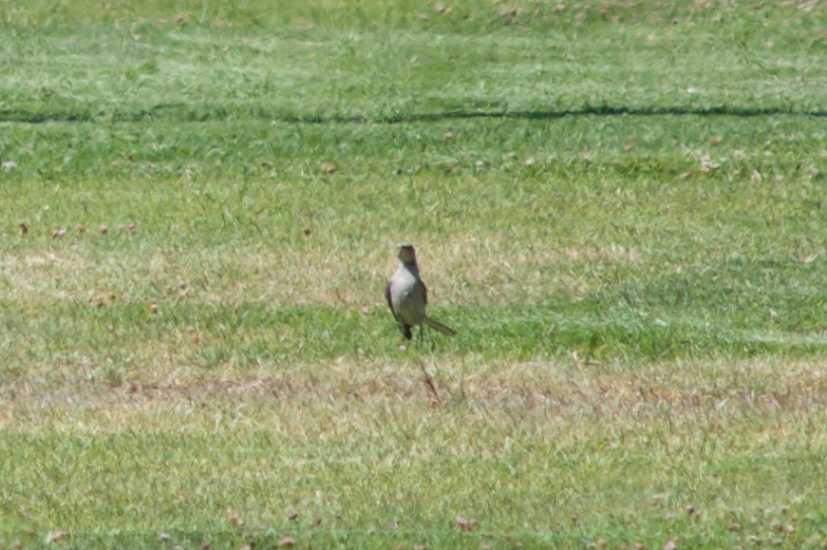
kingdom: Animalia
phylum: Chordata
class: Aves
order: Passeriformes
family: Mimidae
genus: Mimus
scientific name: Mimus polyglottos
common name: Northern mockingbird
